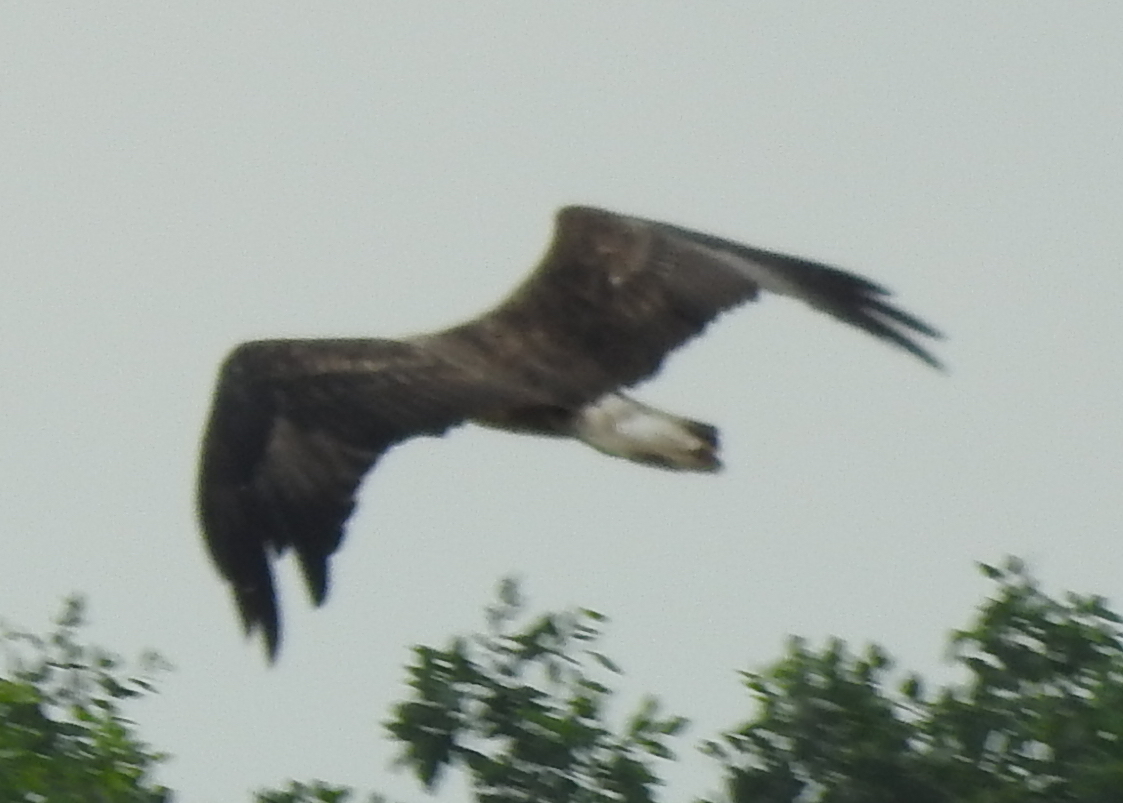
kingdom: Animalia
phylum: Chordata
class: Aves
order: Accipitriformes
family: Accipitridae
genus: Haliaeetus
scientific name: Haliaeetus leucogaster
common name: White-bellied sea eagle
